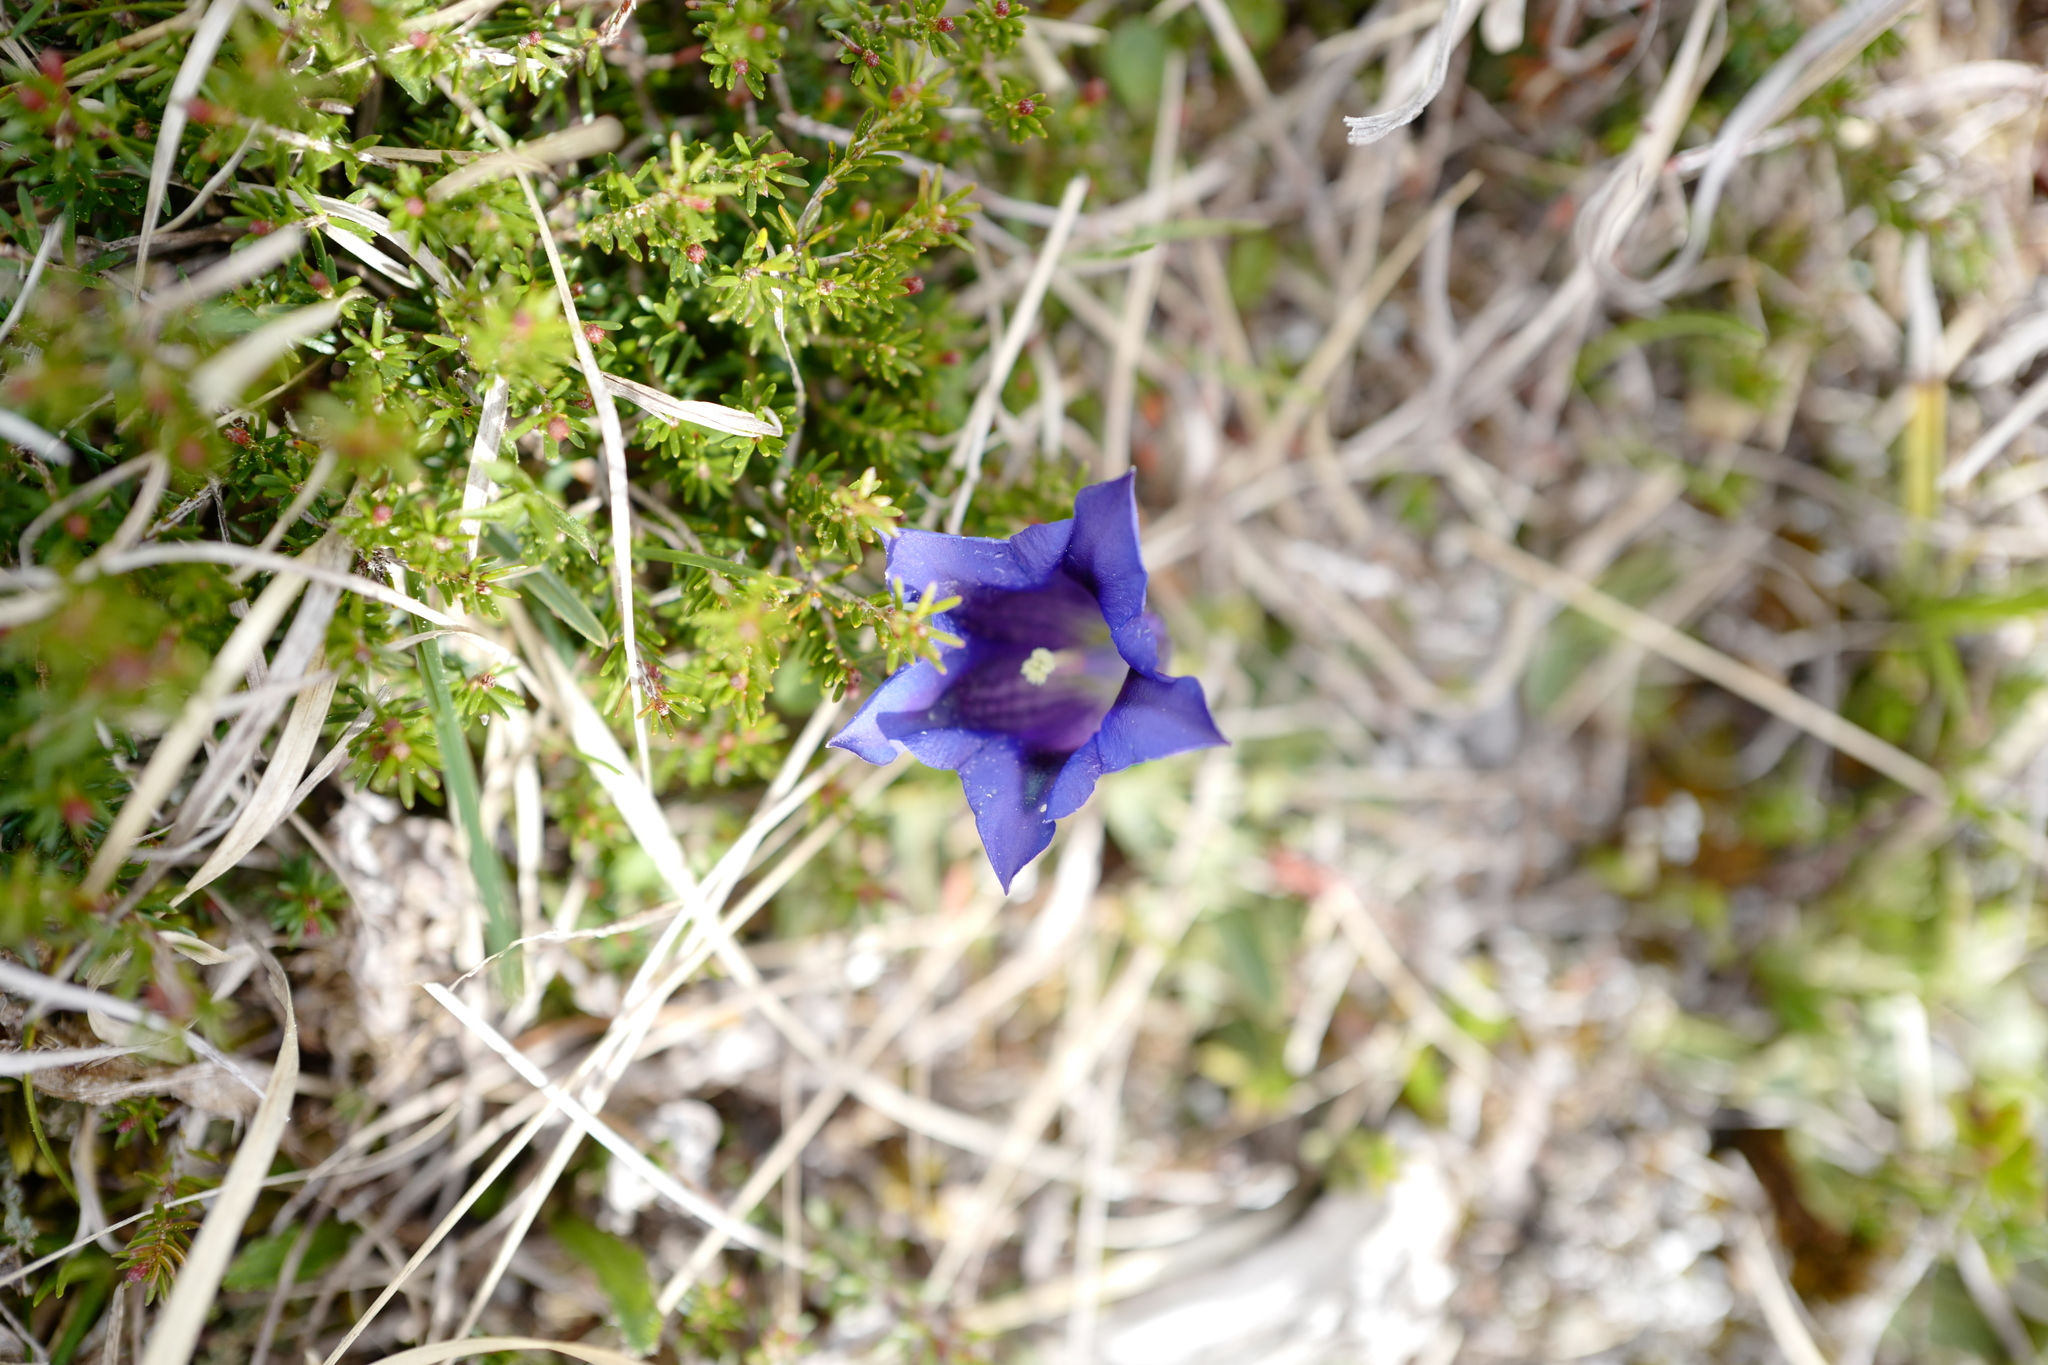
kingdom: Plantae
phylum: Tracheophyta
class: Magnoliopsida
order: Gentianales
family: Gentianaceae
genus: Gentiana
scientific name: Gentiana clusii
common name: Trumpet gentian
